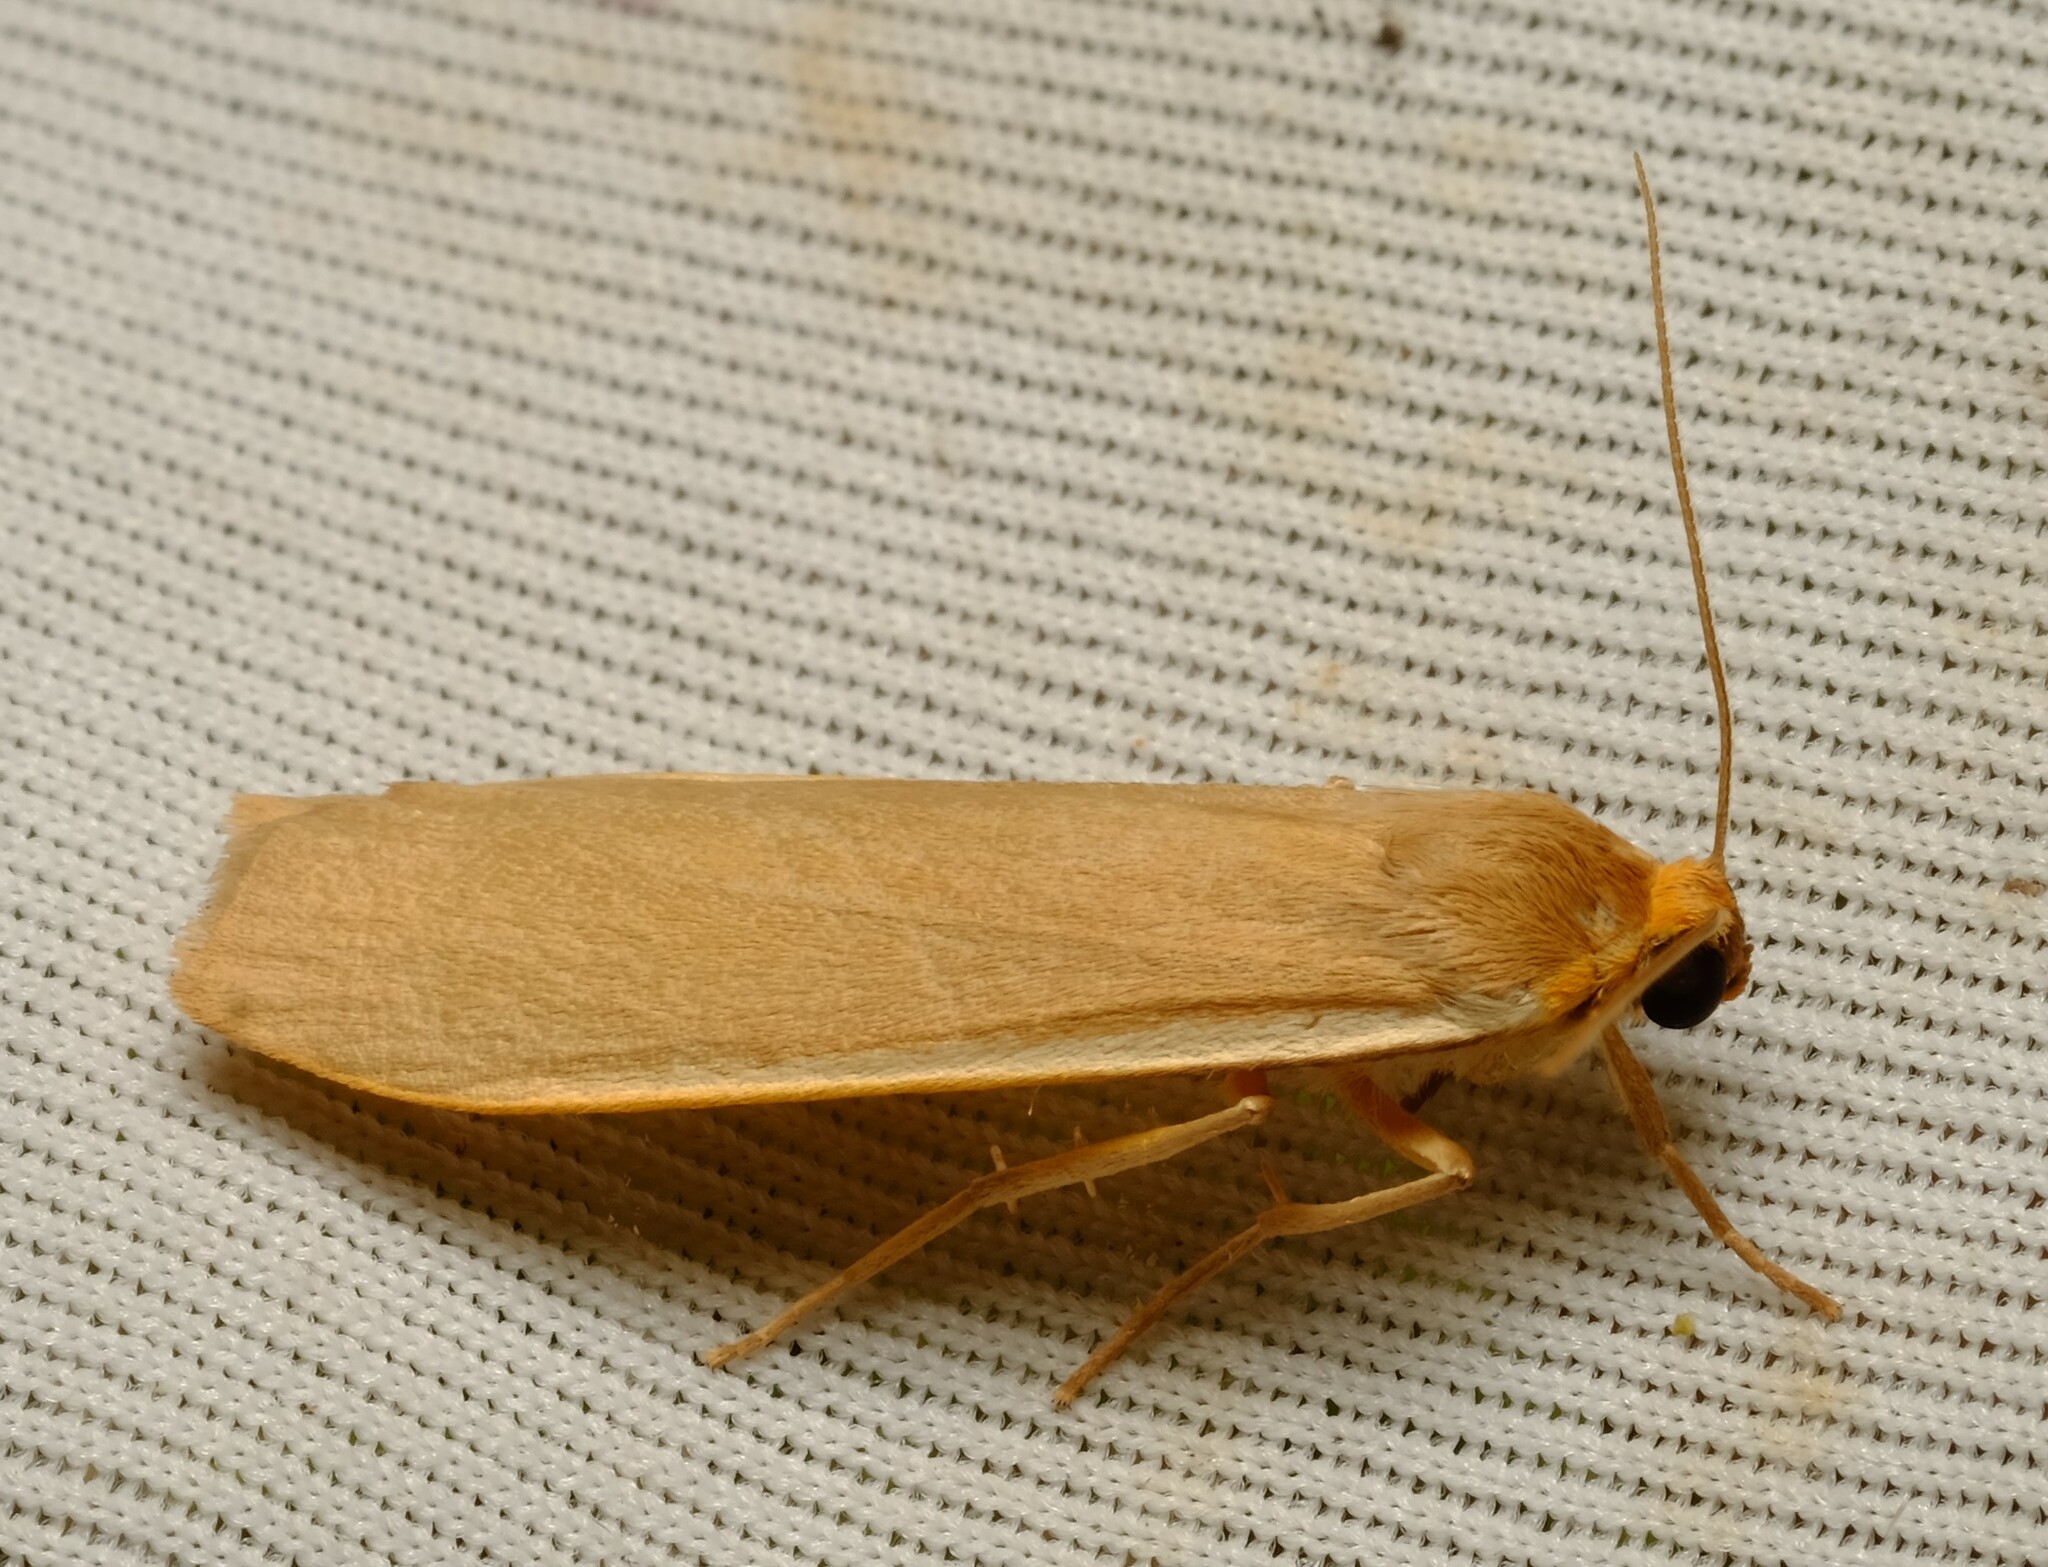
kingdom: Animalia
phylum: Arthropoda
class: Insecta
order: Lepidoptera
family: Erebidae
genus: Palaeosia
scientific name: Palaeosia
